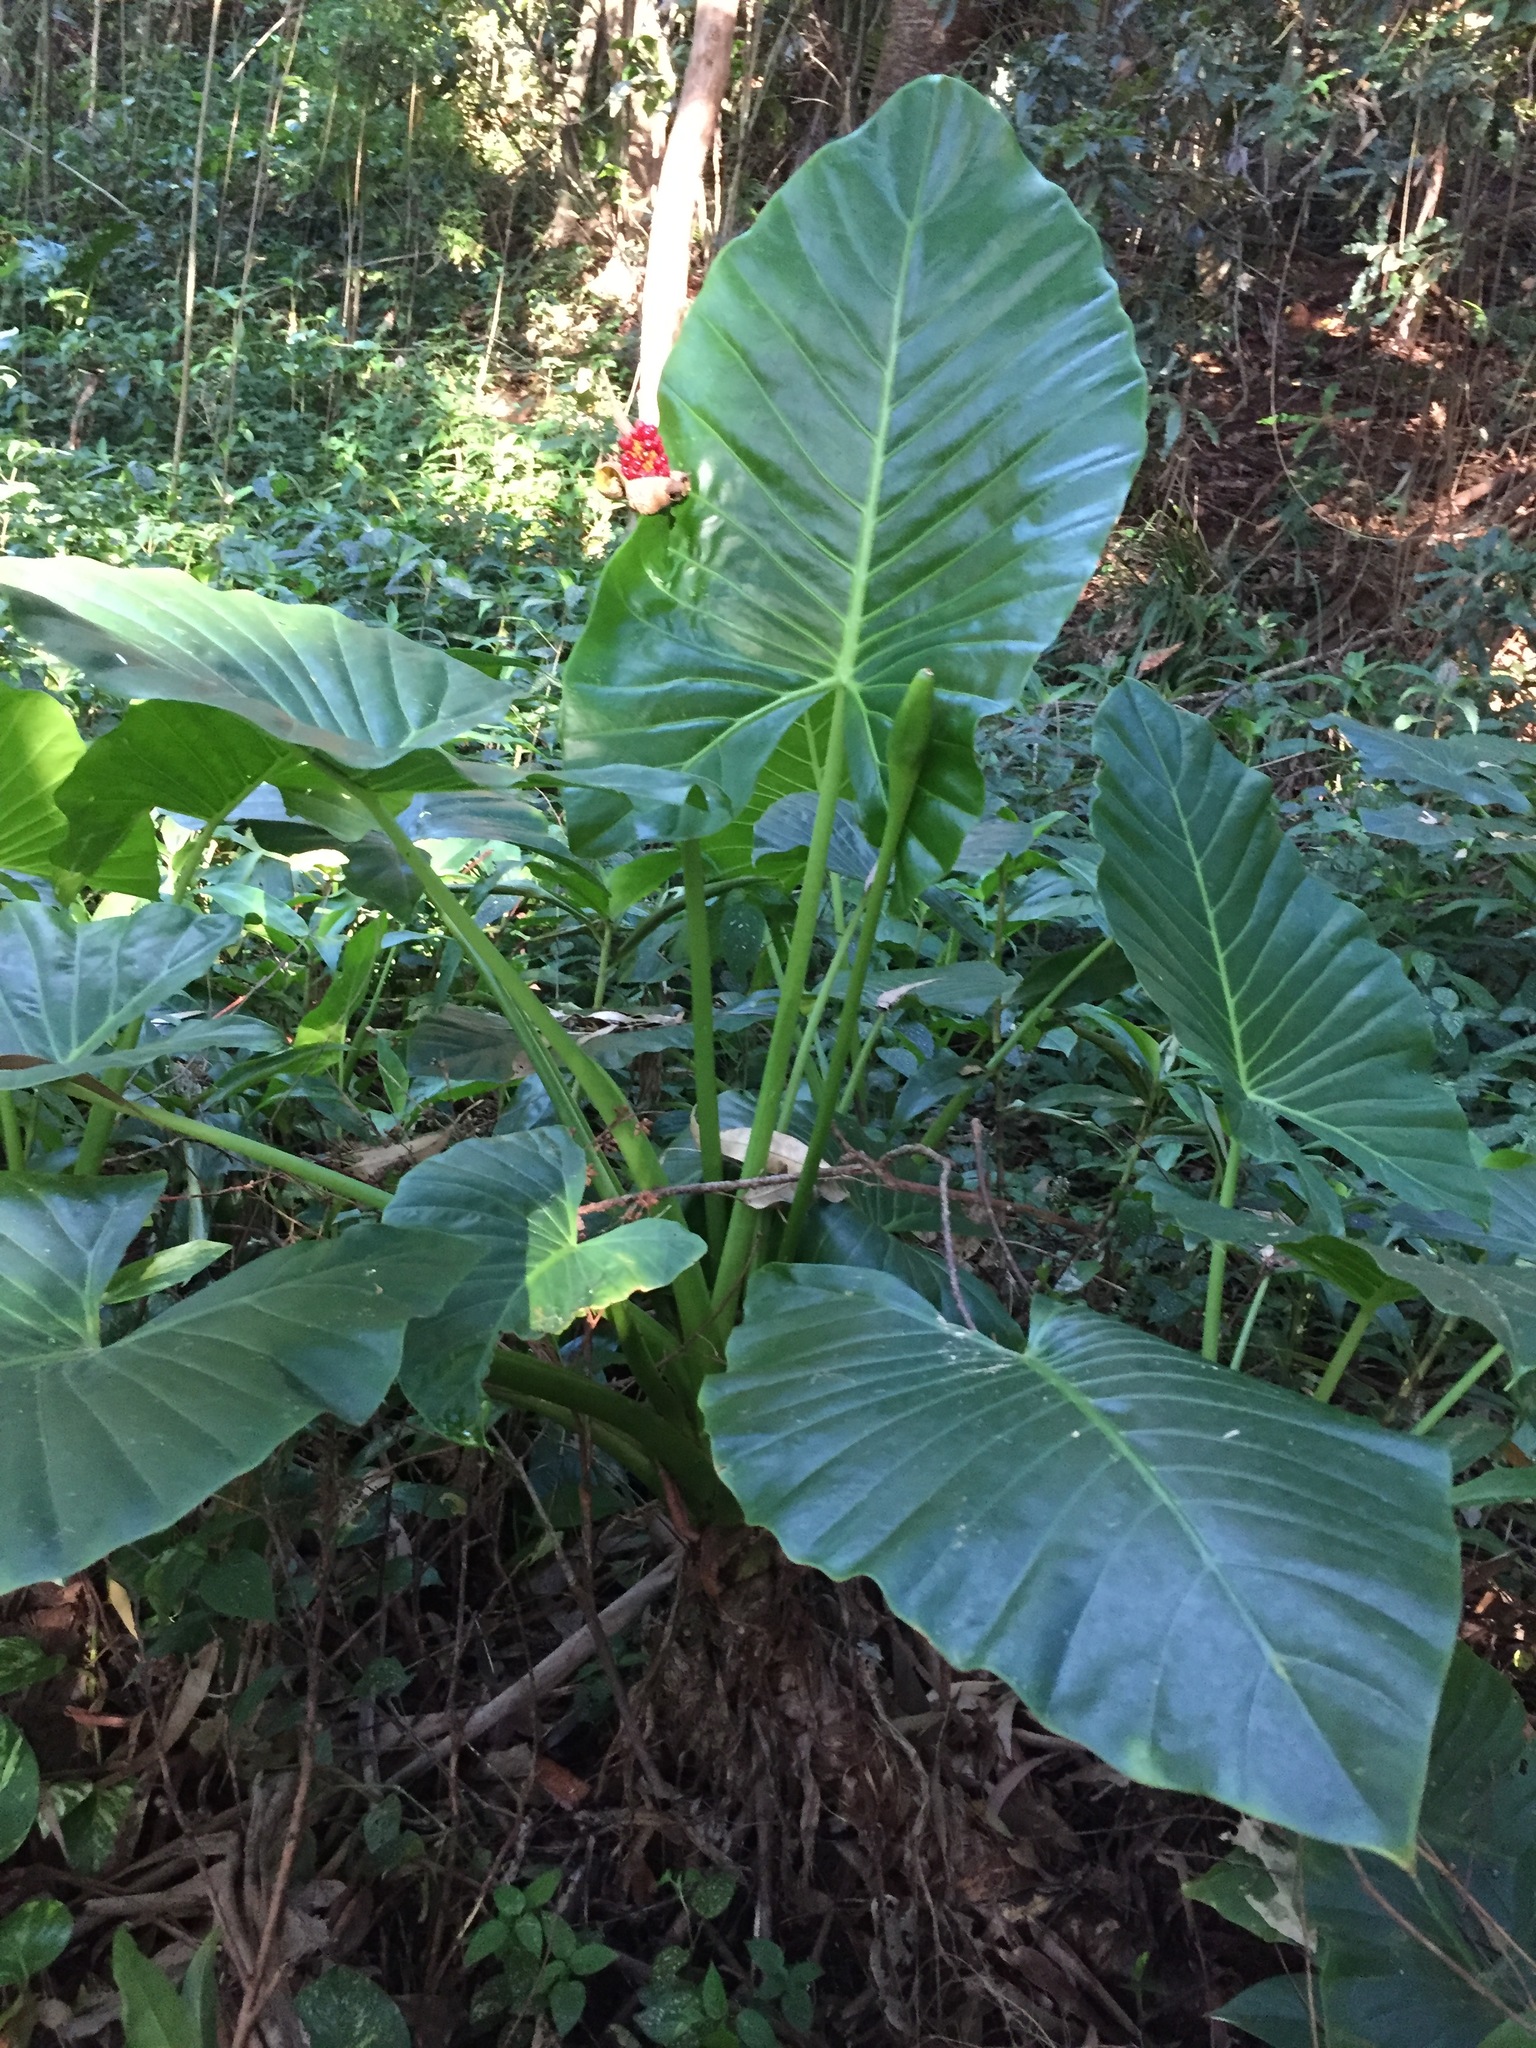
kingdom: Plantae
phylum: Tracheophyta
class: Liliopsida
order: Alismatales
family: Araceae
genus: Alocasia
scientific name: Alocasia brisbanensis
